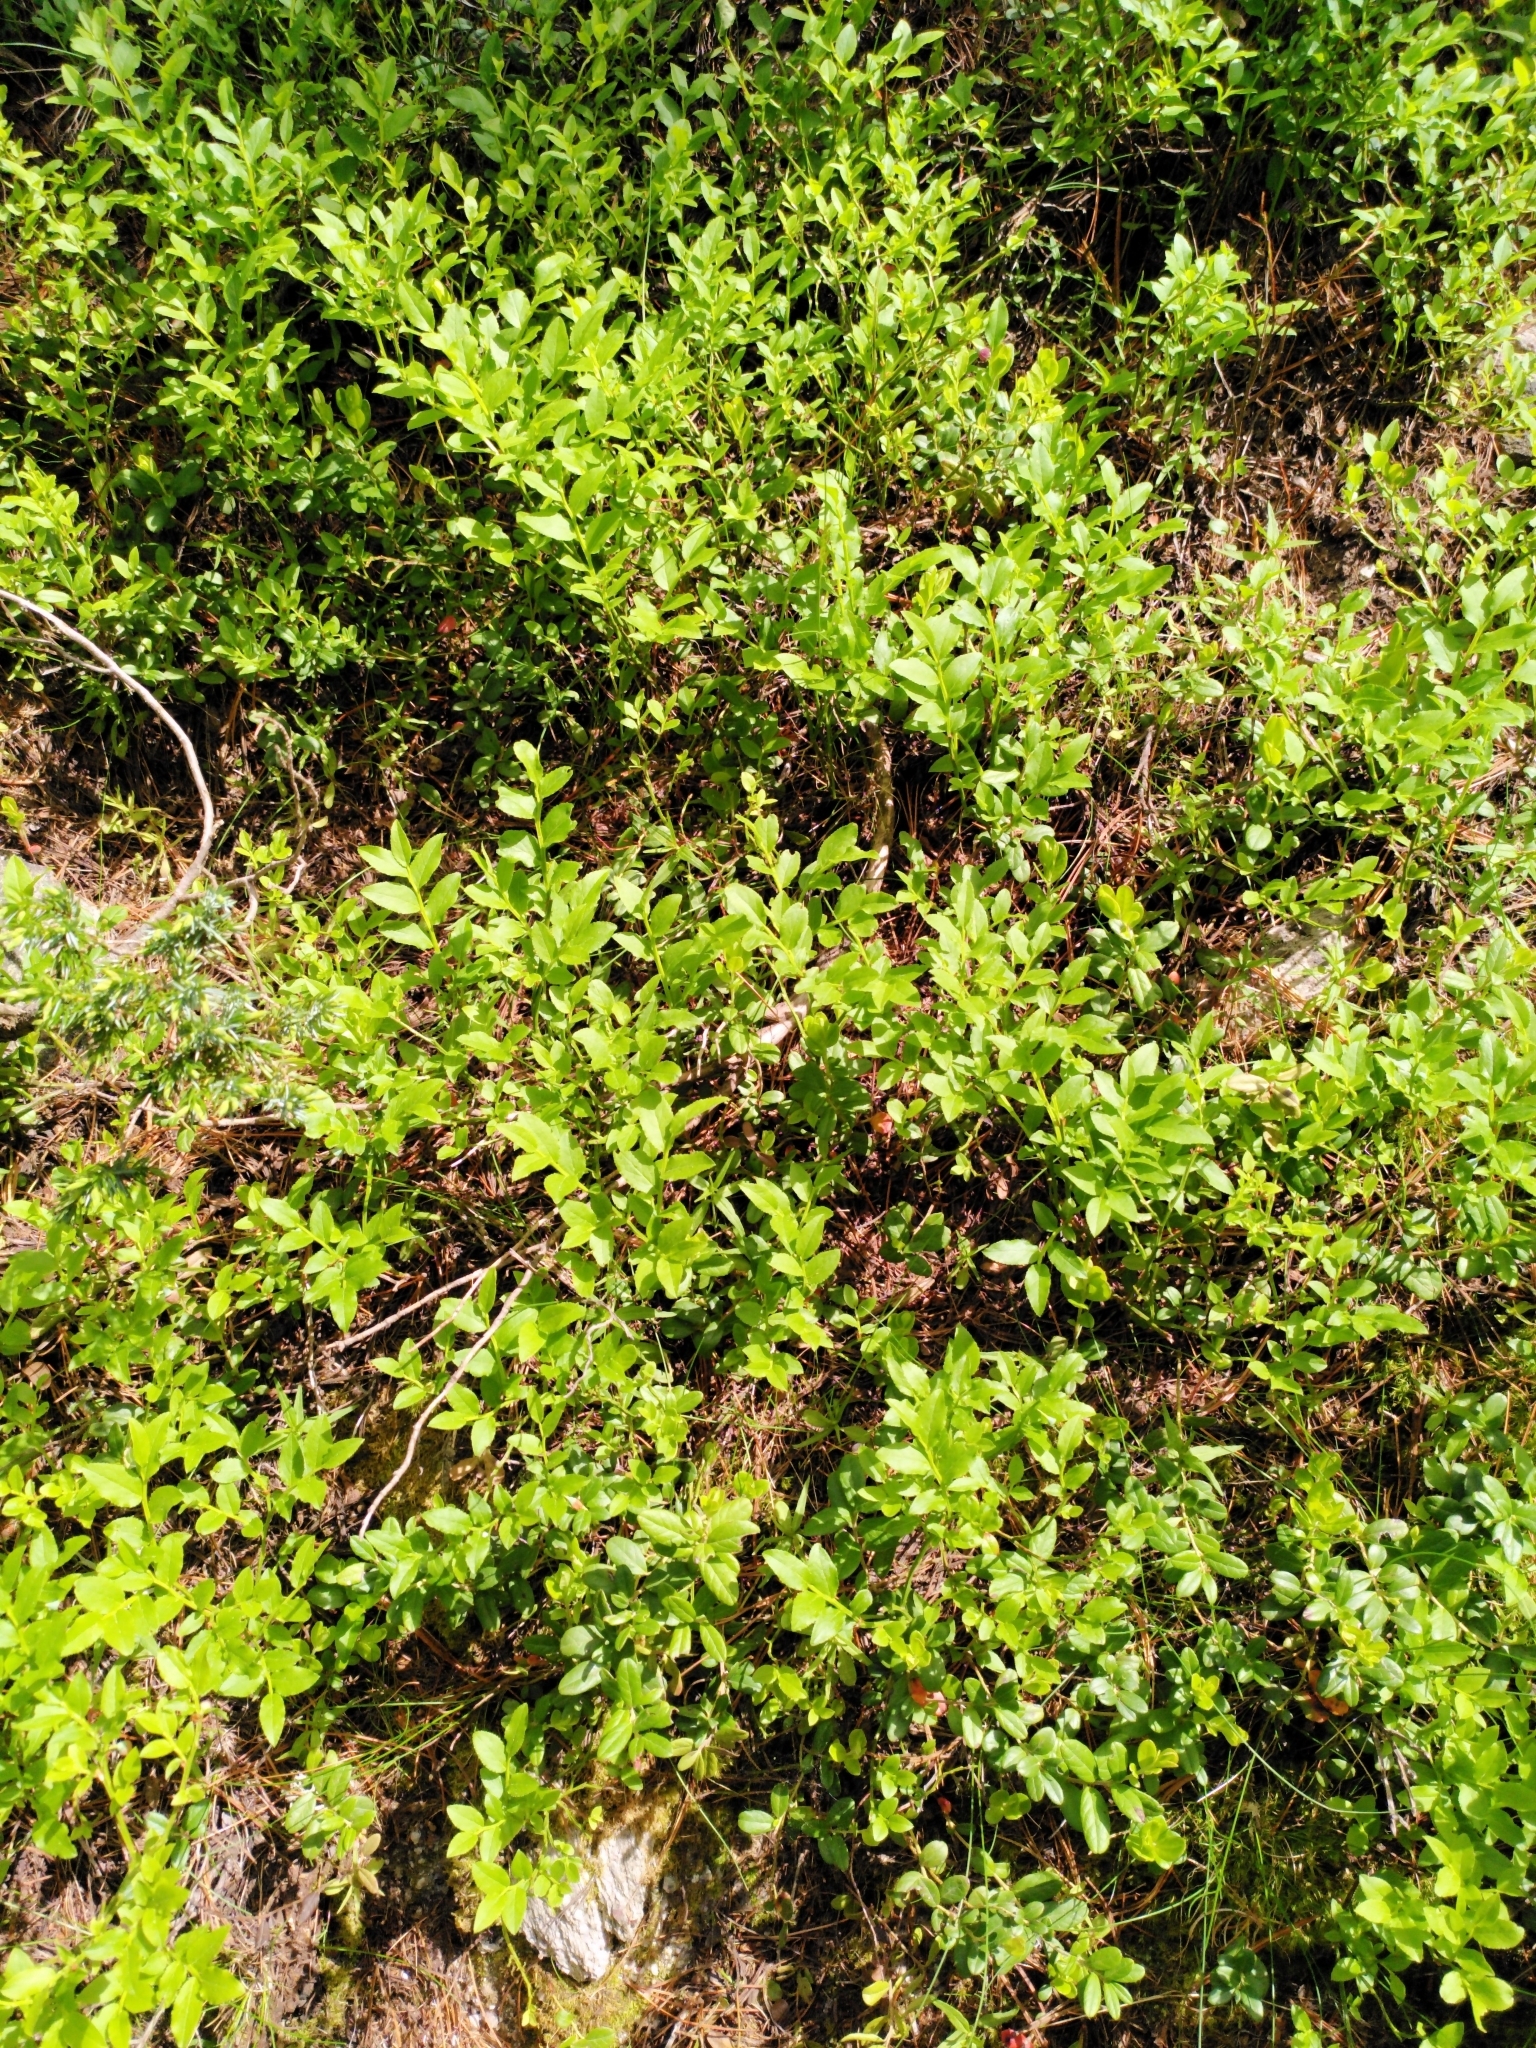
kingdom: Plantae
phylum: Tracheophyta
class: Magnoliopsida
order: Ericales
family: Ericaceae
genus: Vaccinium
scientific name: Vaccinium myrtillus
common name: Bilberry
